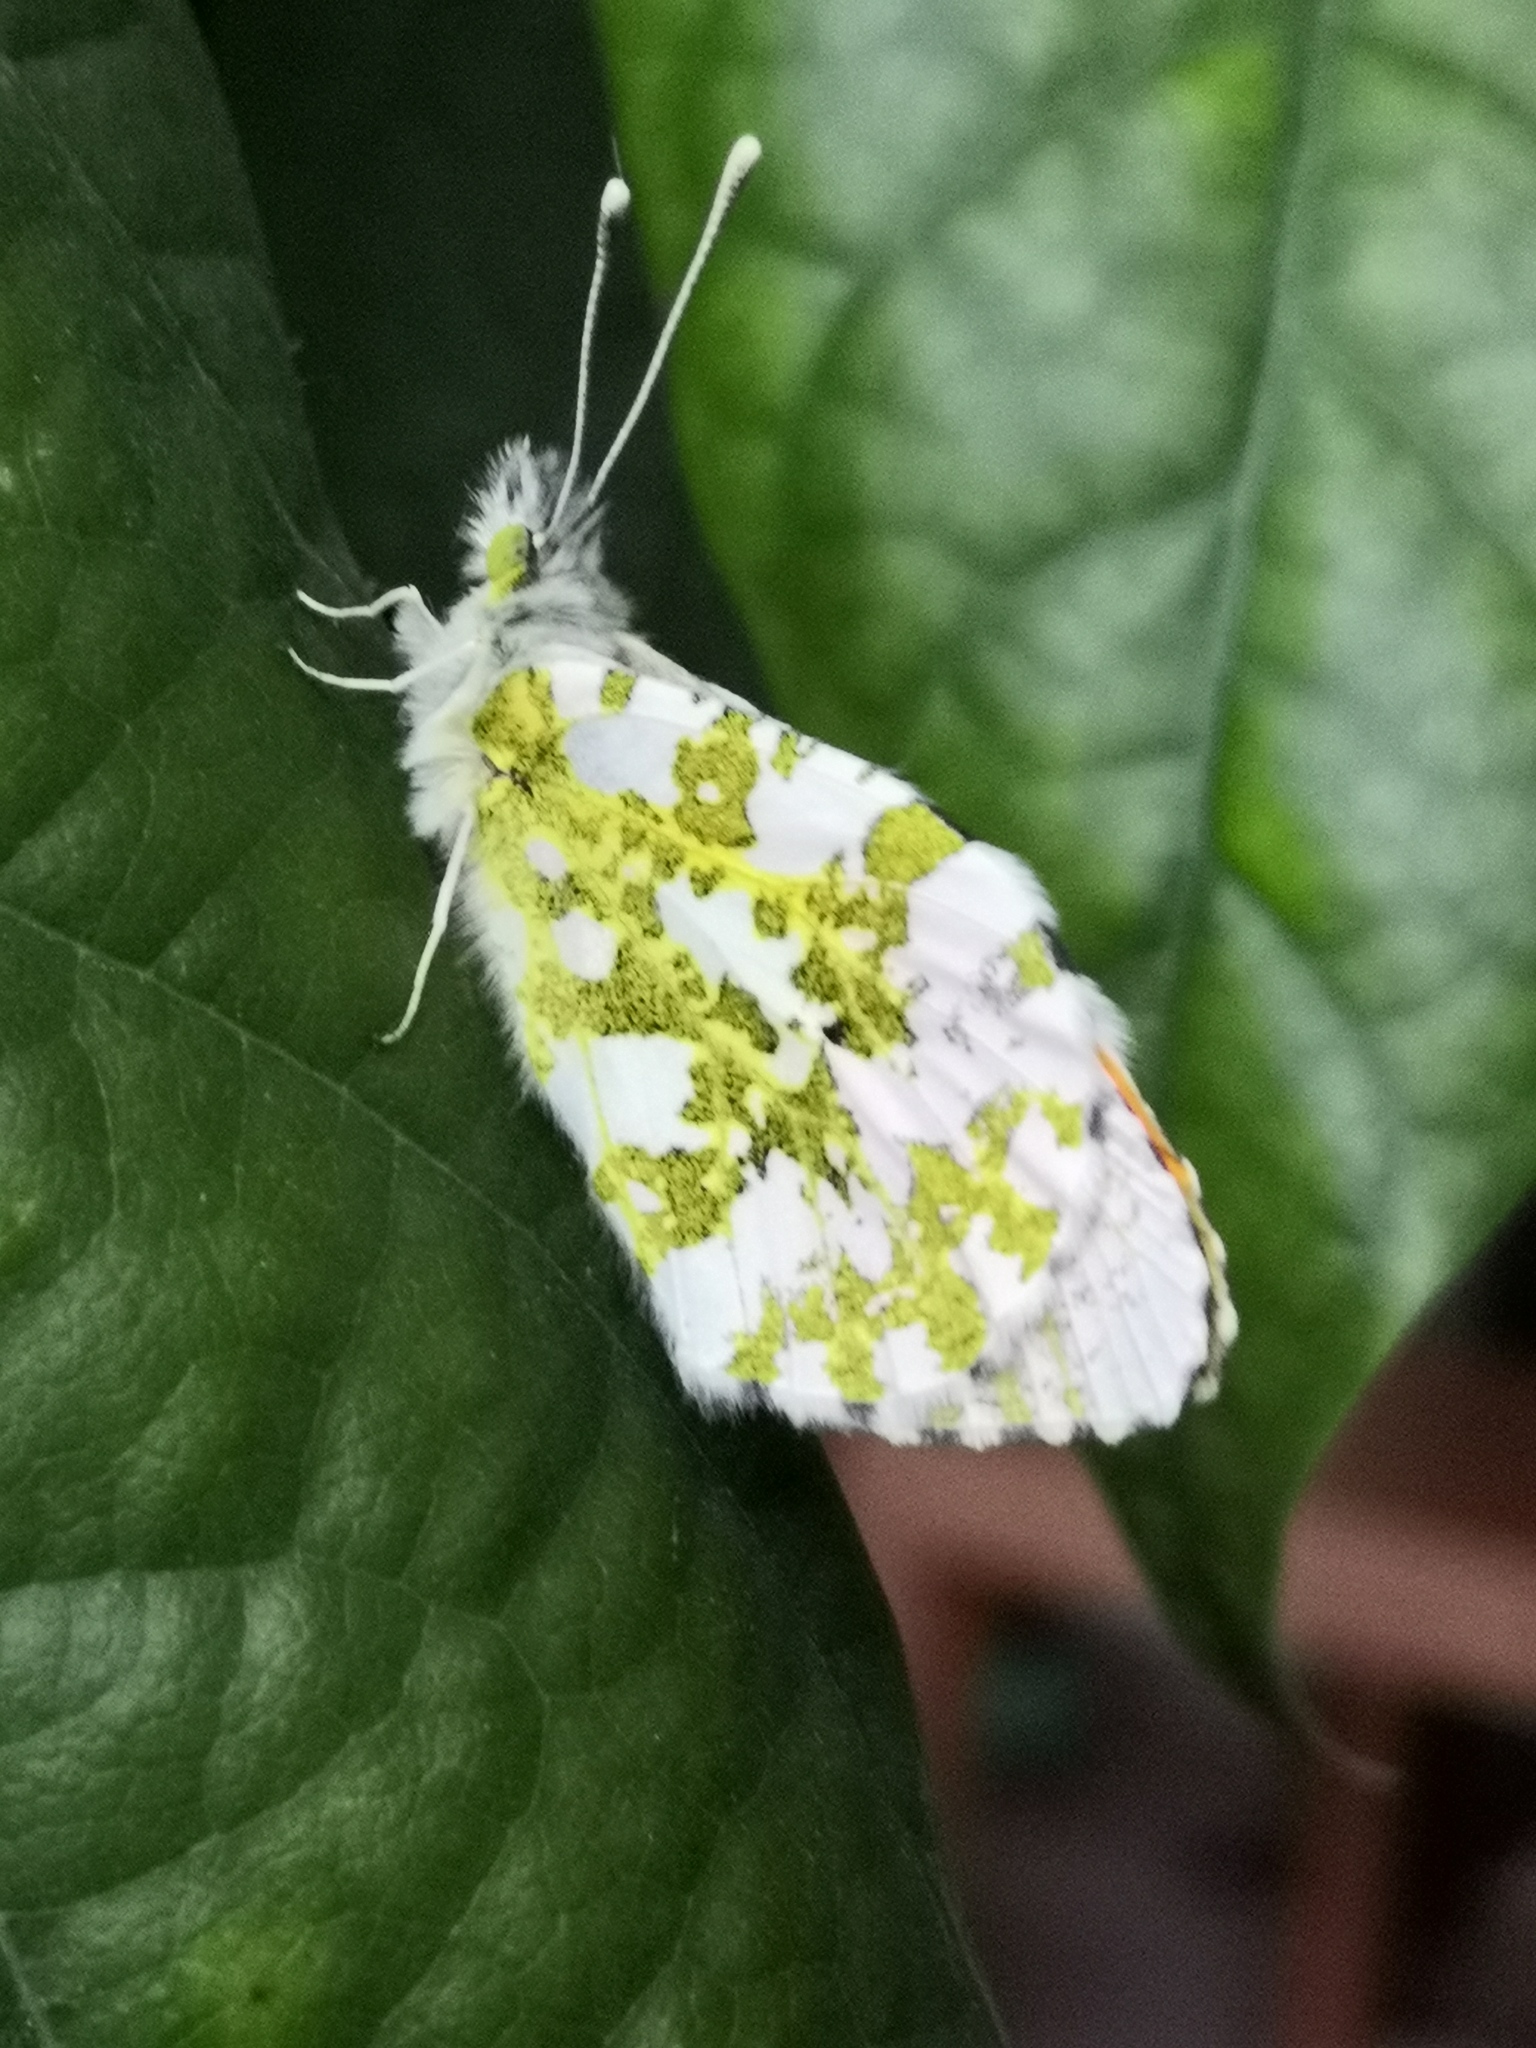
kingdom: Animalia
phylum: Arthropoda
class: Insecta
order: Lepidoptera
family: Pieridae
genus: Anthocharis
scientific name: Anthocharis cardamines
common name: Orange-tip
